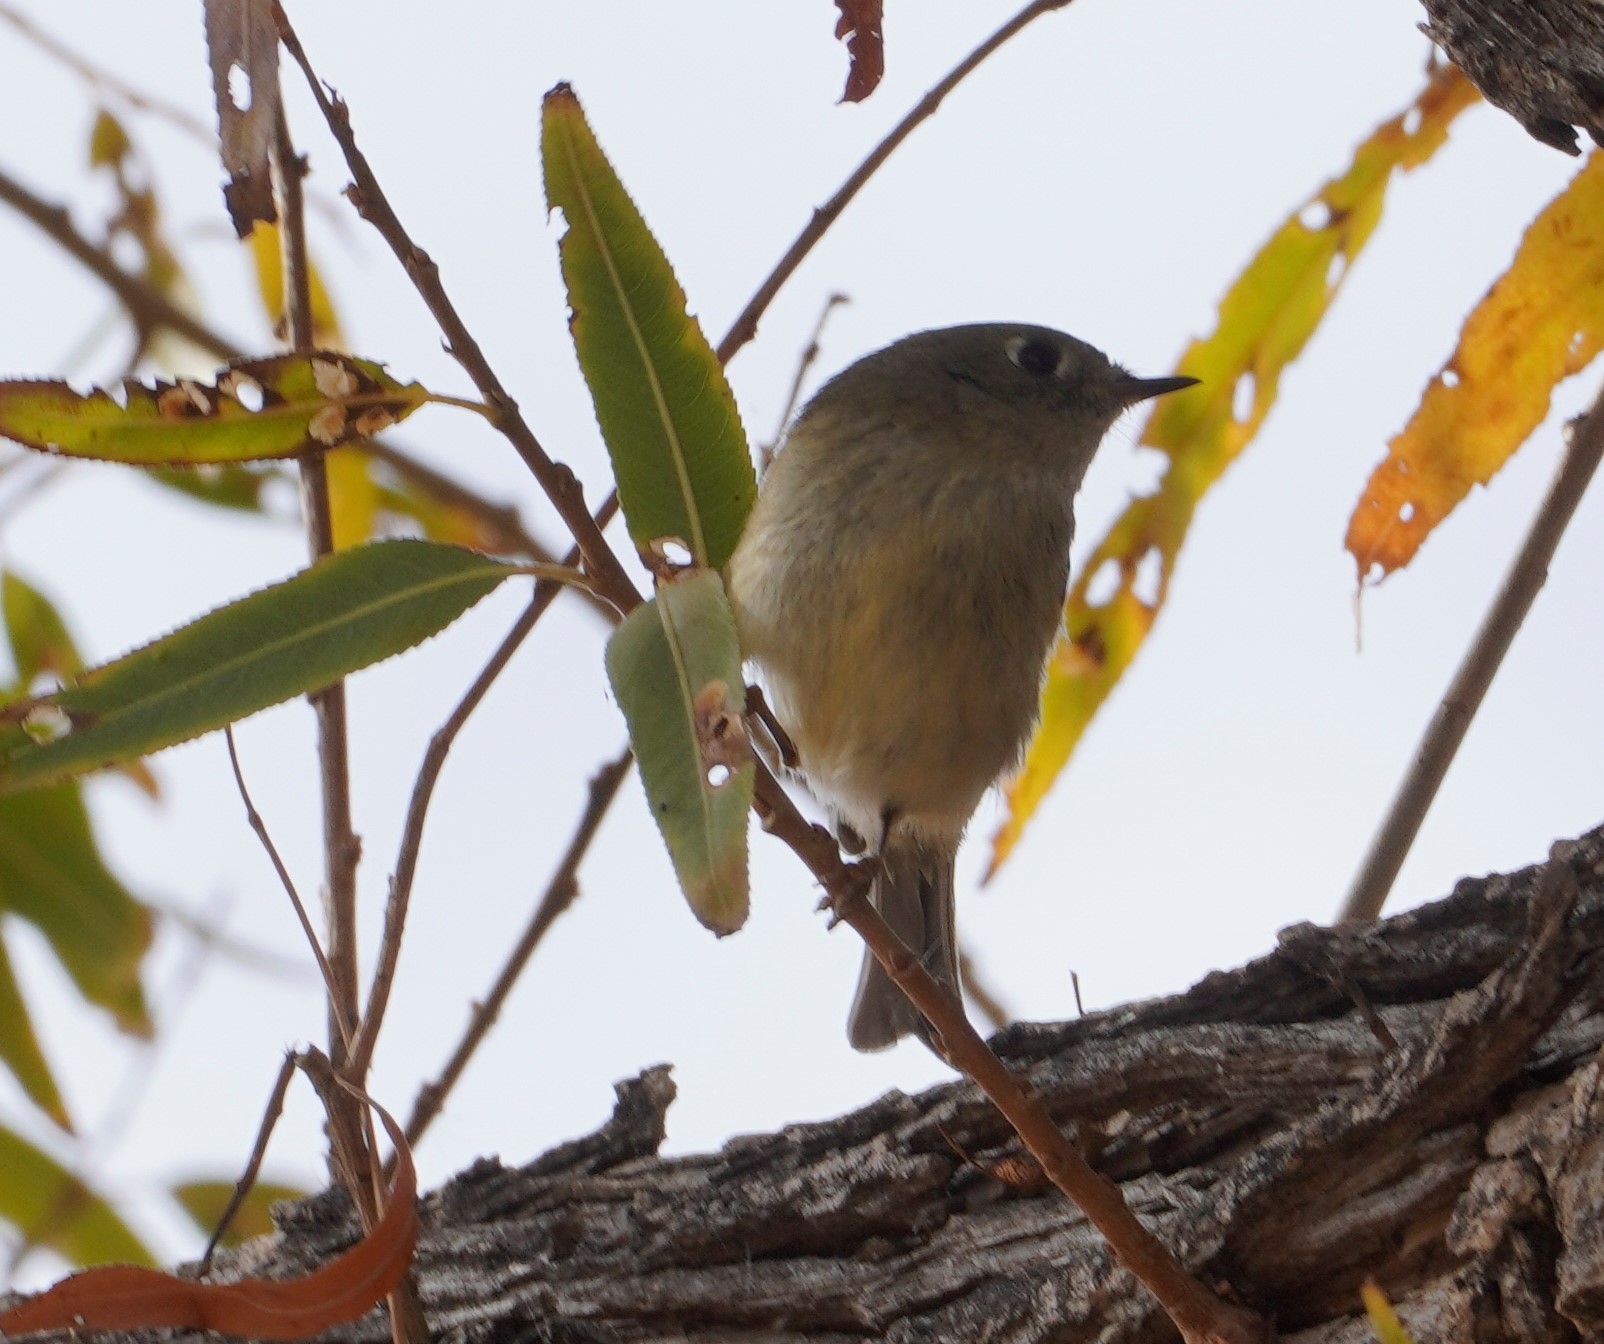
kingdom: Animalia
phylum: Chordata
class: Aves
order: Passeriformes
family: Regulidae
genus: Regulus
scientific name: Regulus calendula
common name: Ruby-crowned kinglet
